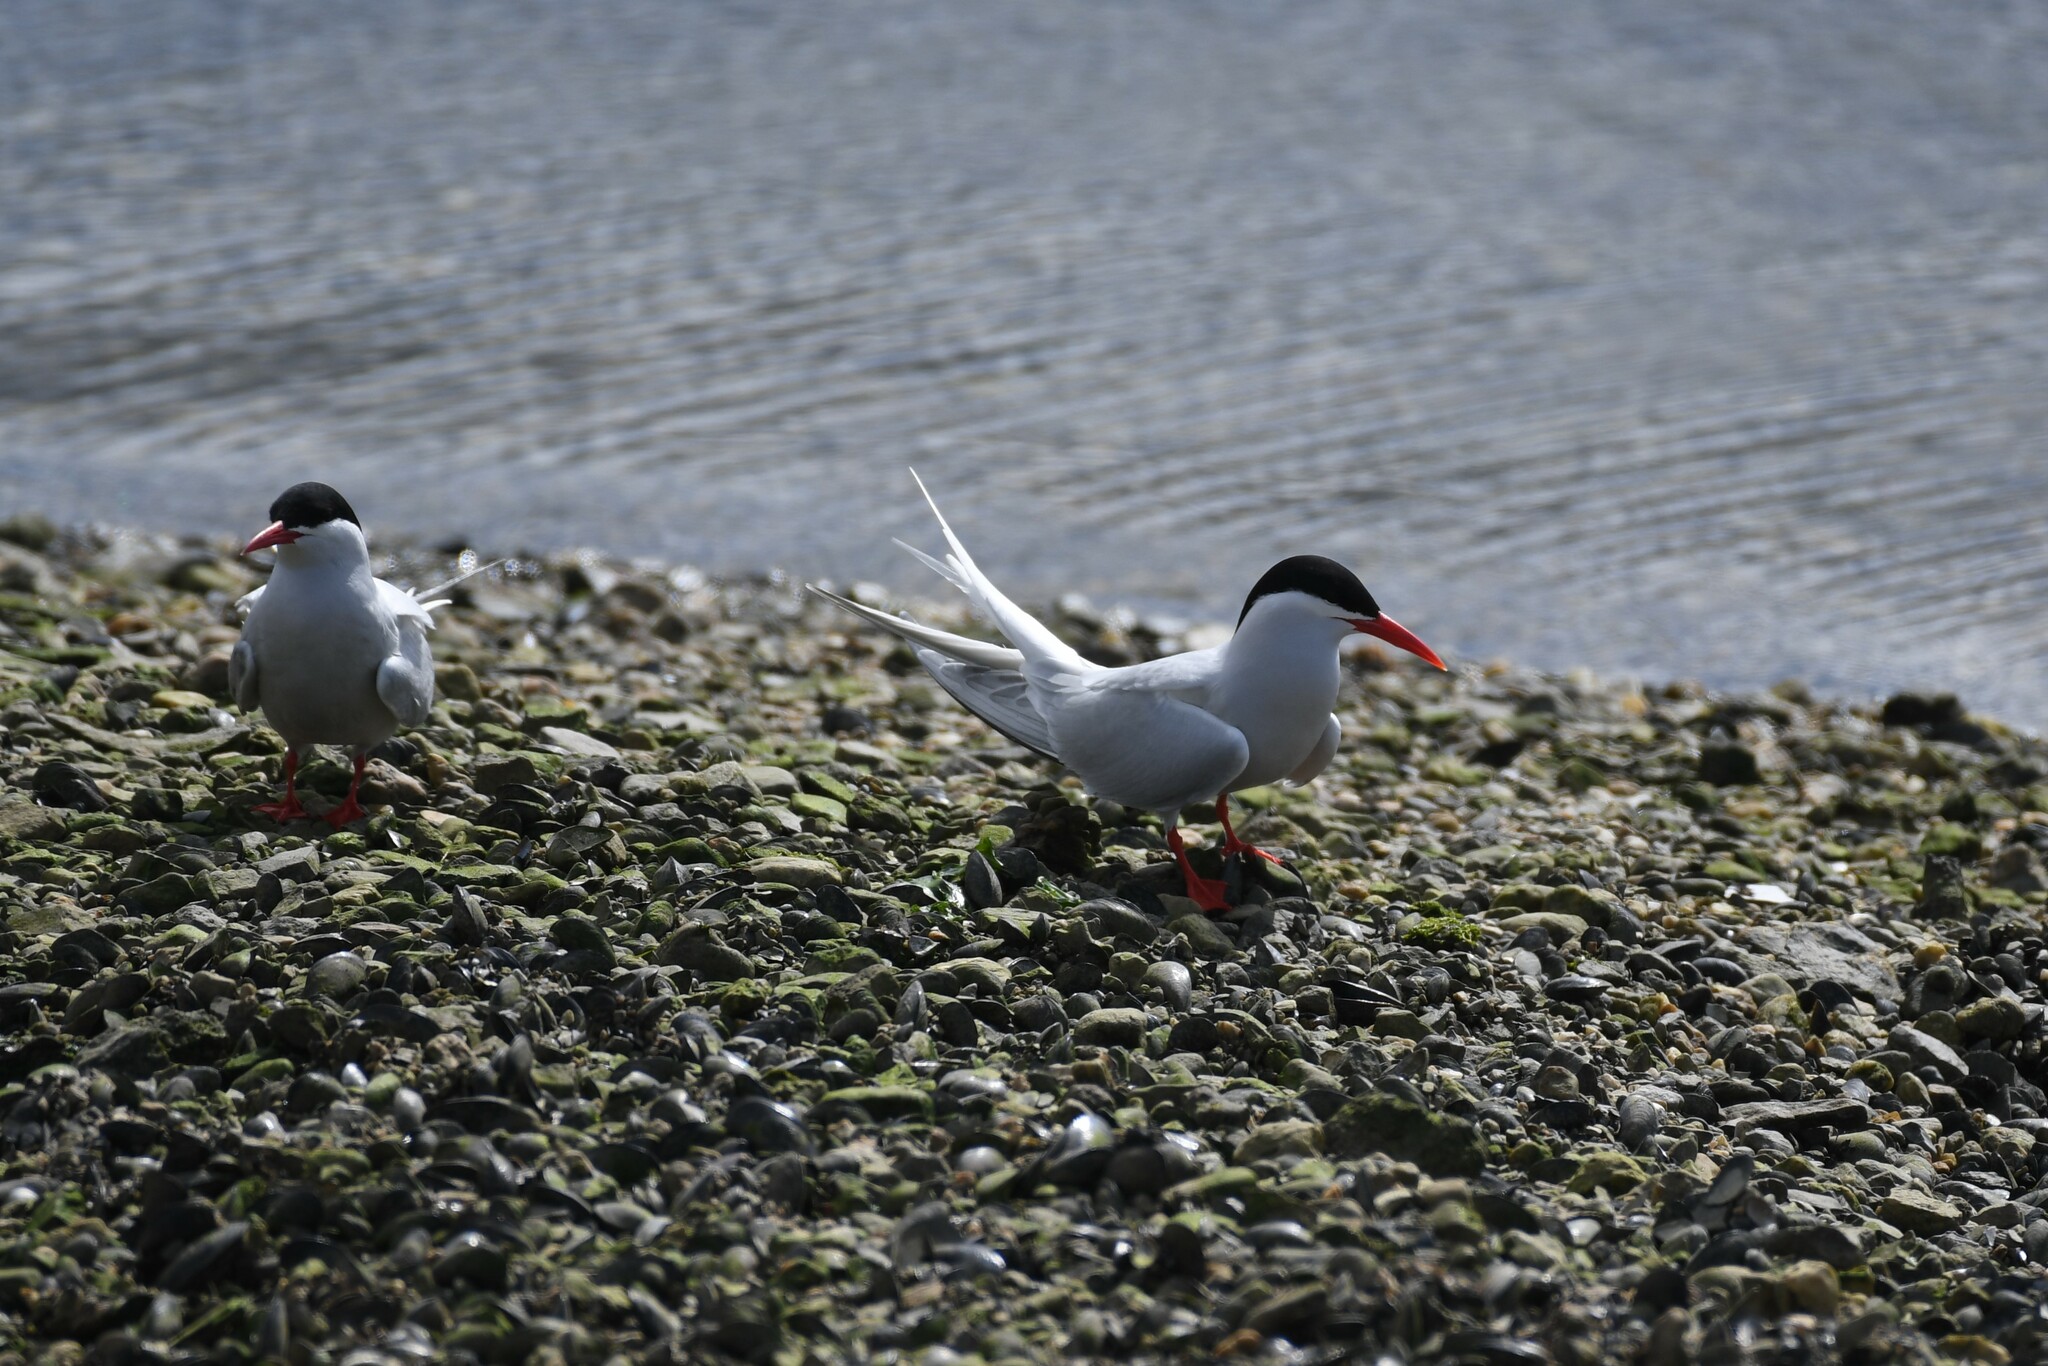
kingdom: Animalia
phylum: Chordata
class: Aves
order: Charadriiformes
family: Laridae
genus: Sterna
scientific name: Sterna hirundinacea
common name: South american tern
